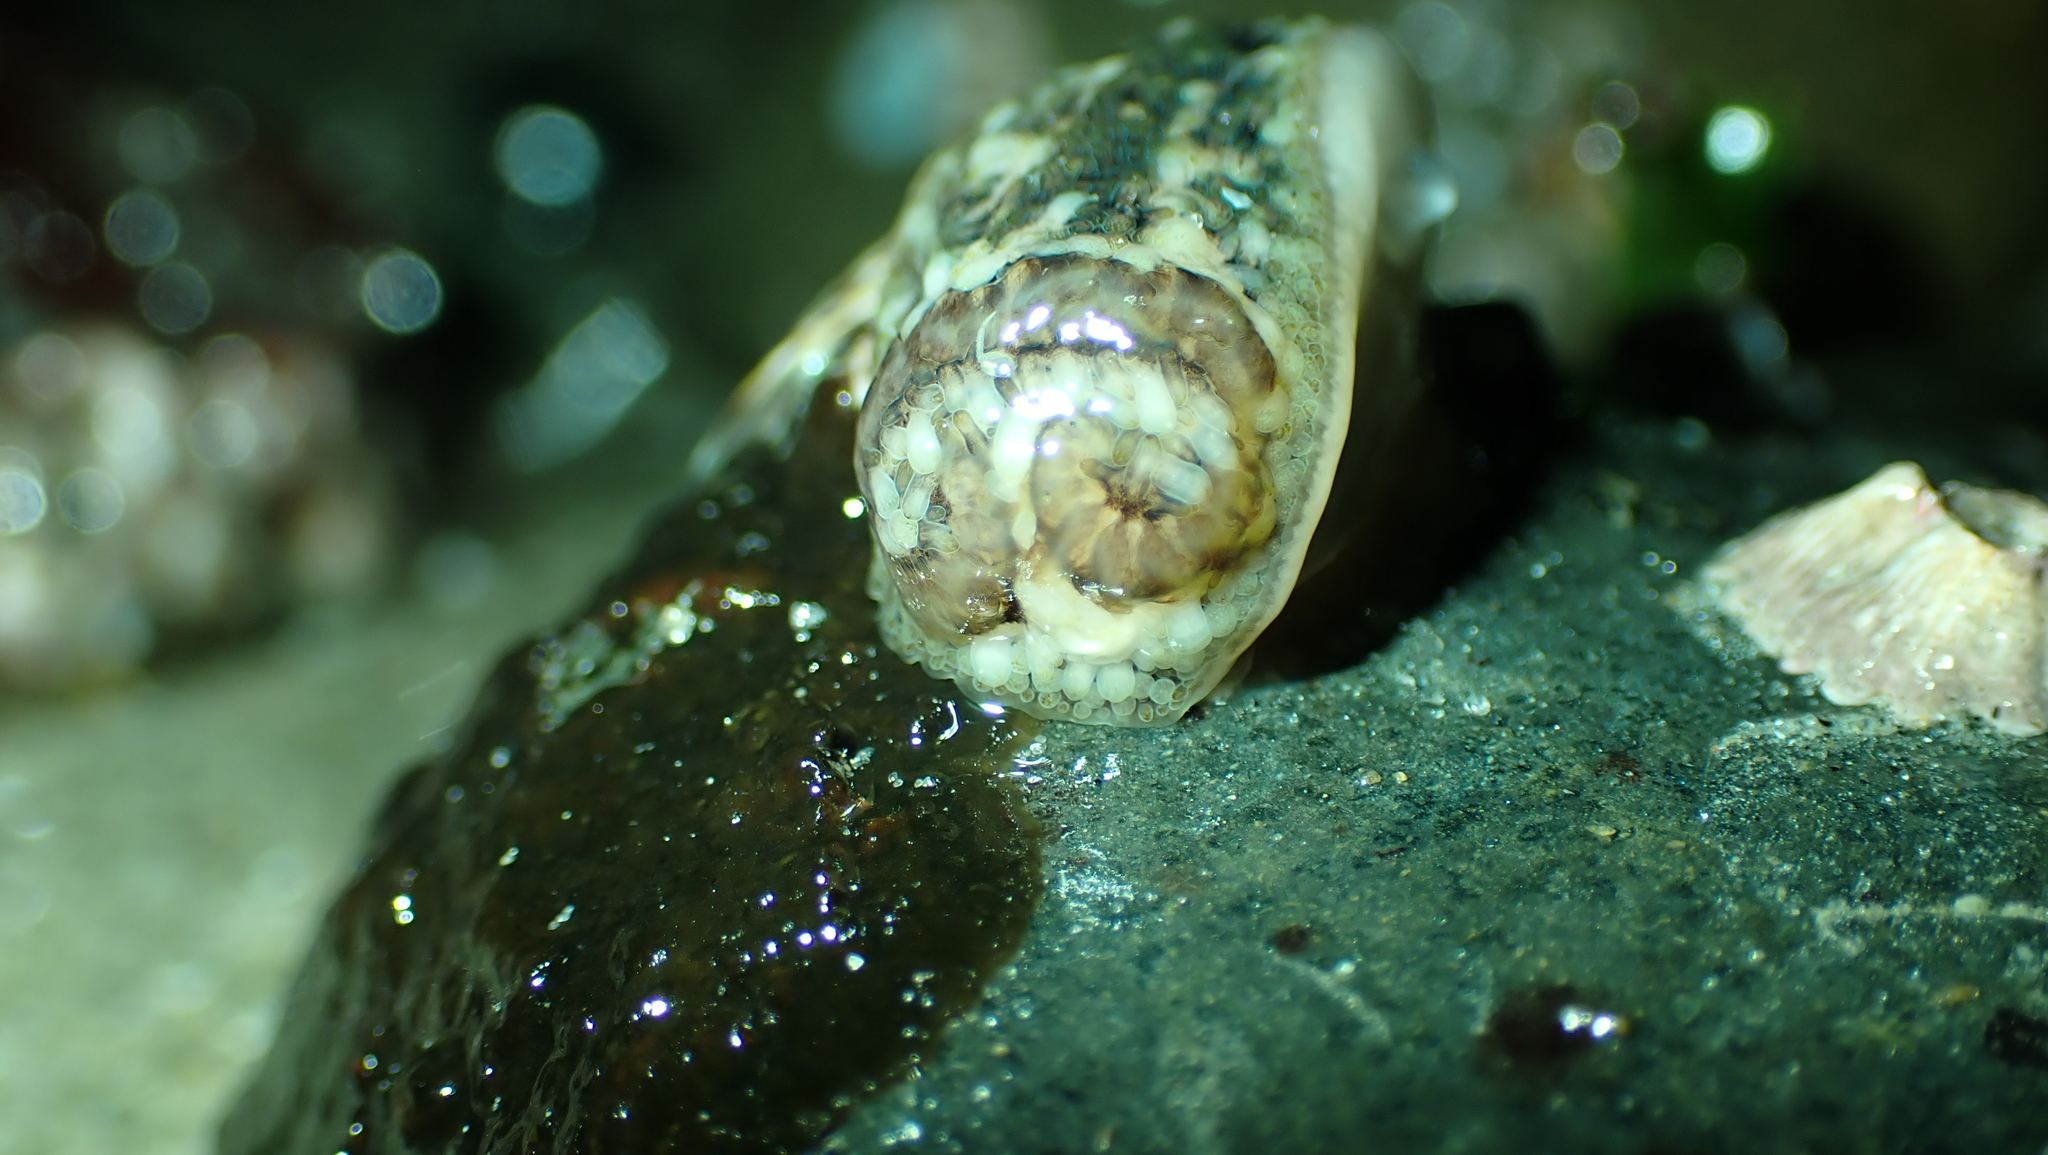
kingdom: Animalia
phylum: Mollusca
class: Gastropoda
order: Nudibranchia
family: Onchidorididae
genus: Onchidoris
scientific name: Onchidoris bilamellata
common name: Barnacle-eating onchidoris
